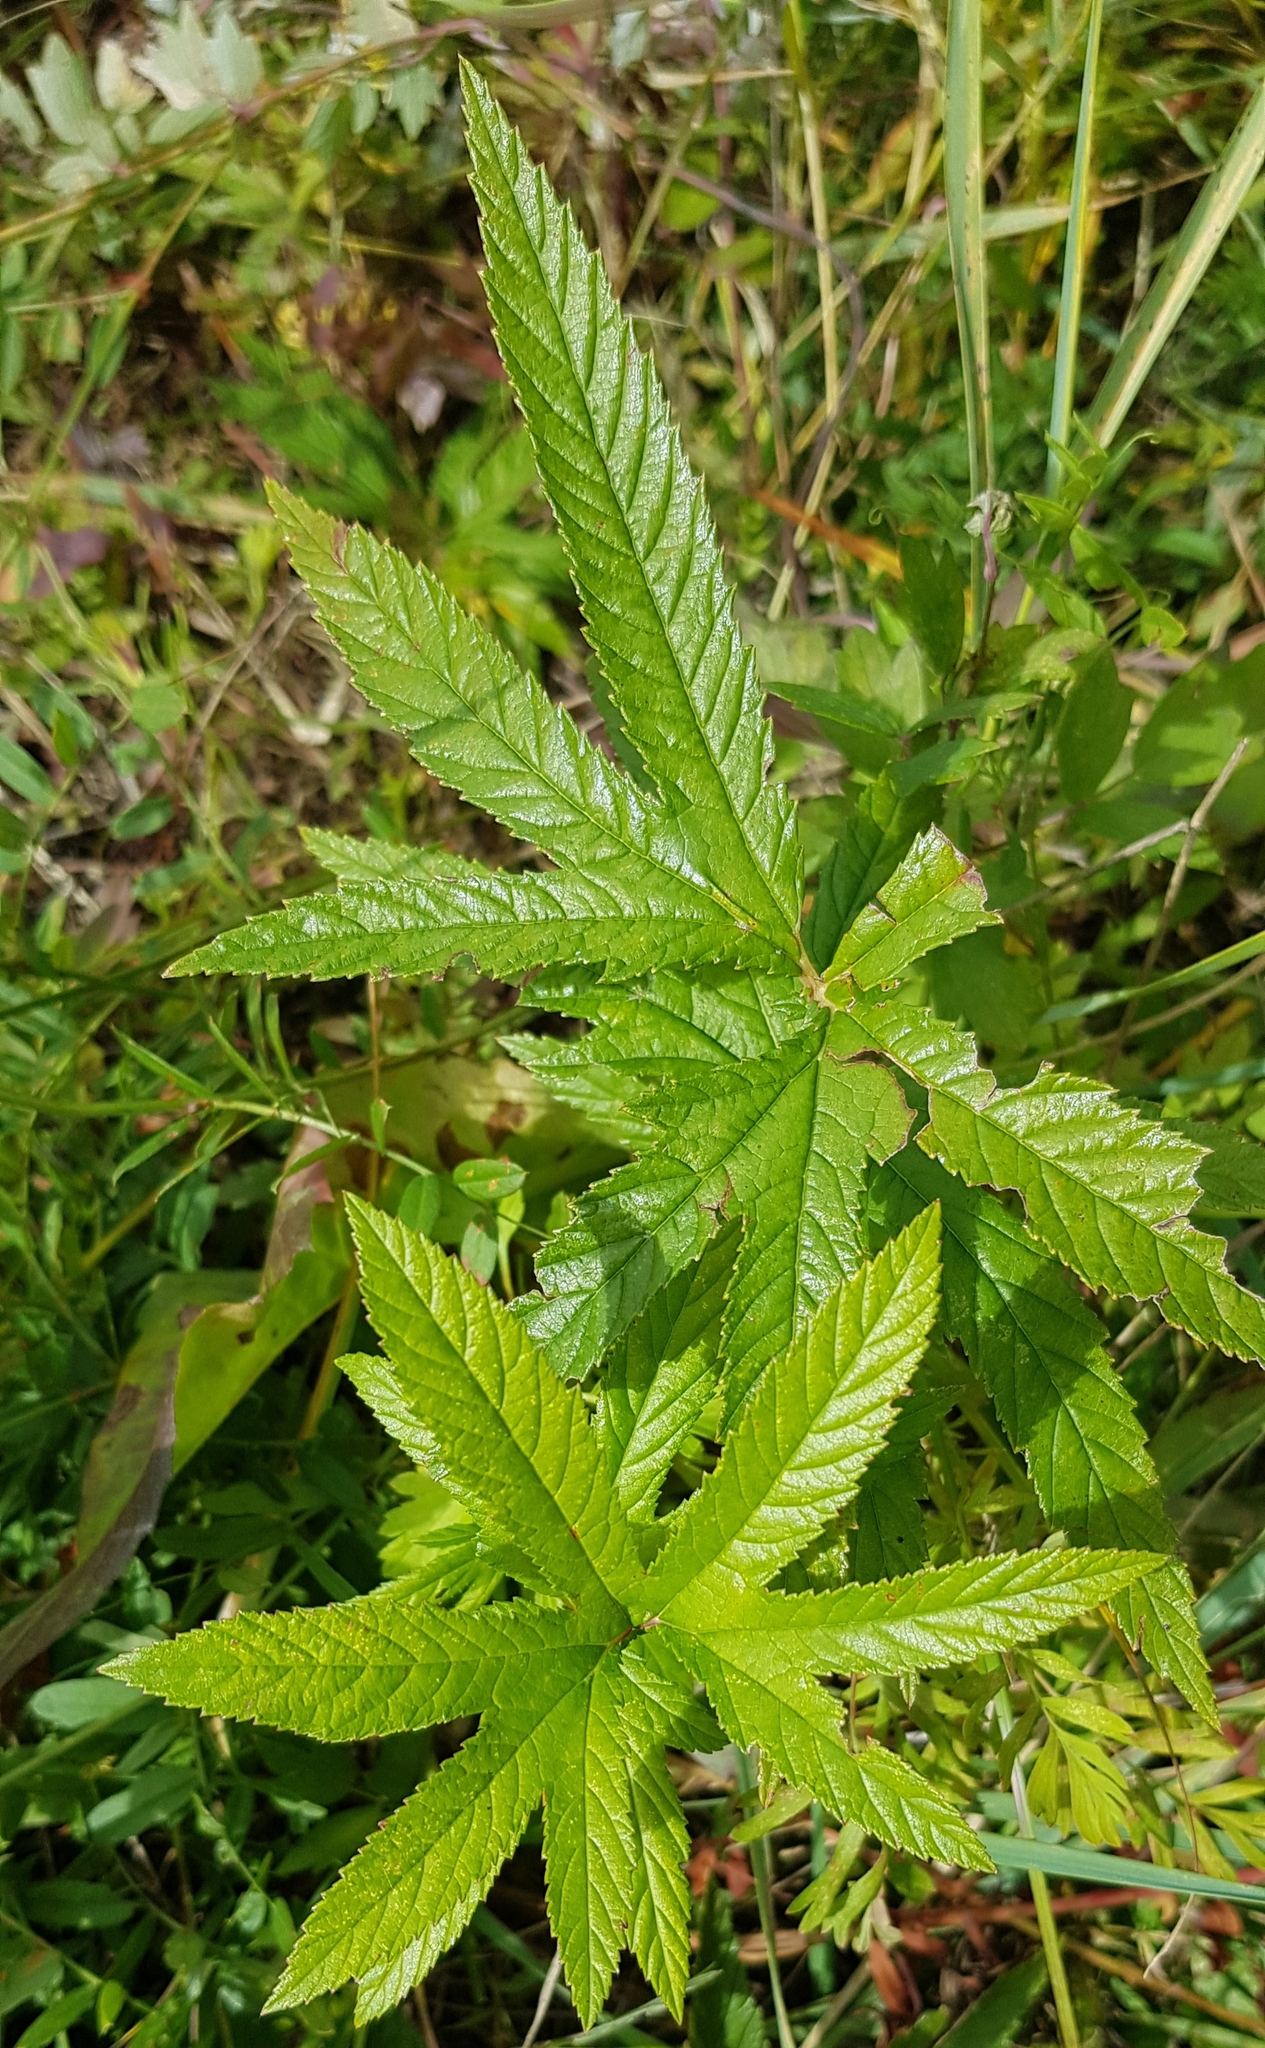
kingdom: Plantae
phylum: Tracheophyta
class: Magnoliopsida
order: Rosales
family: Rosaceae
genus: Filipendula
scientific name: Filipendula digitata
